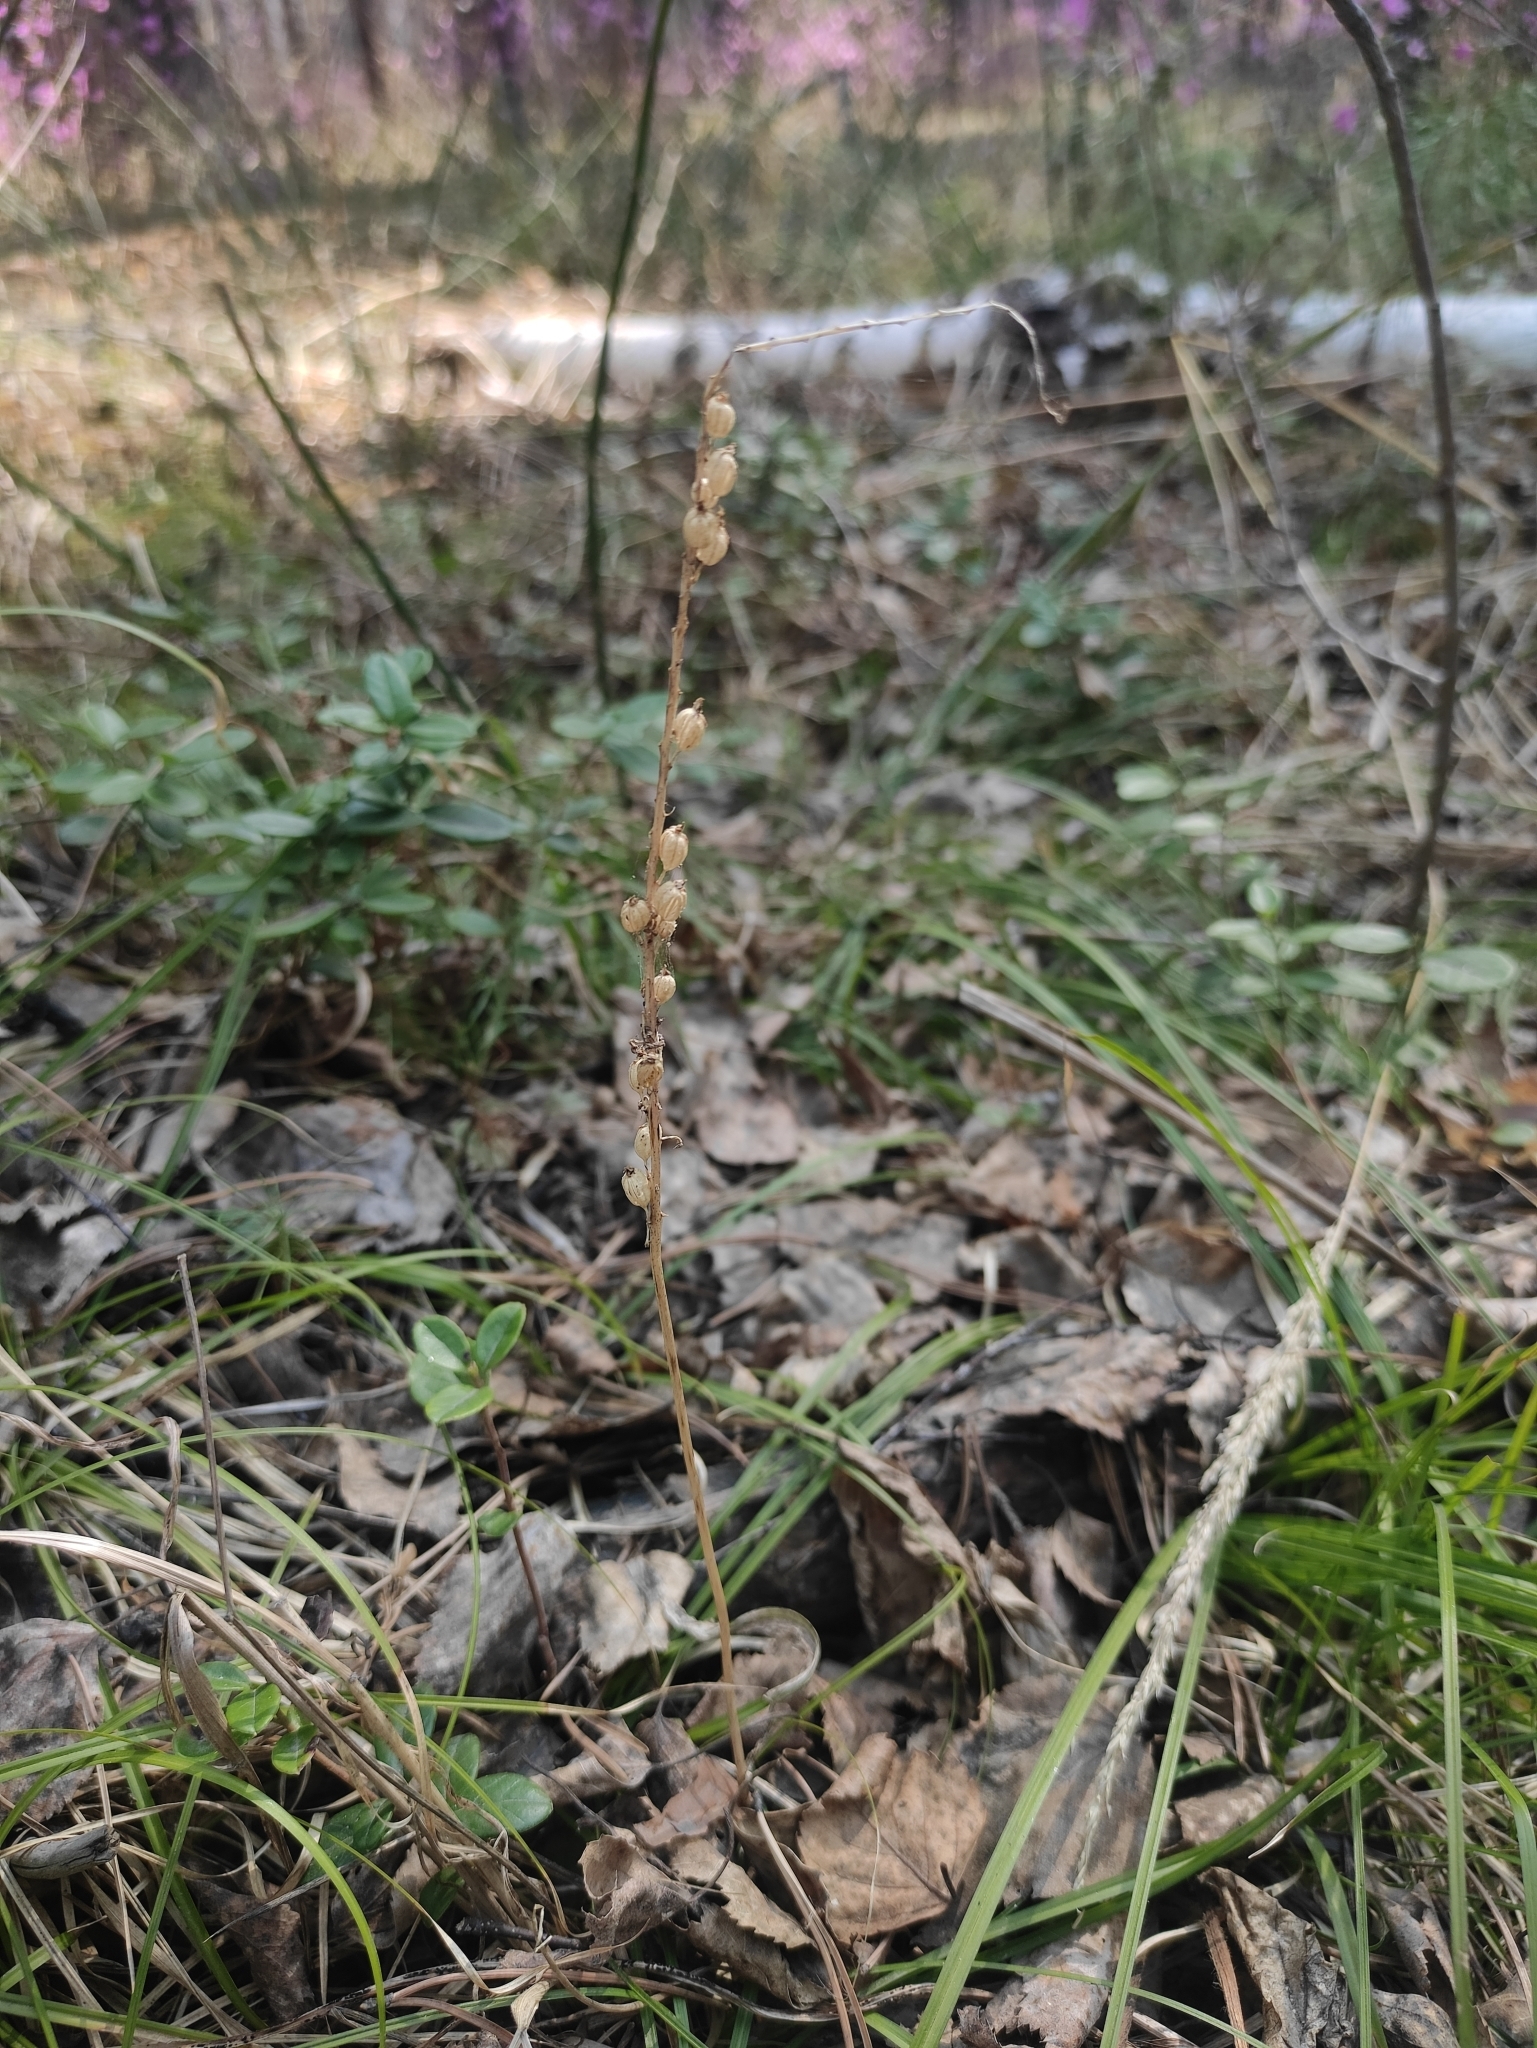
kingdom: Plantae
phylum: Tracheophyta
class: Liliopsida
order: Asparagales
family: Orchidaceae
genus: Malaxis
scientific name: Malaxis monophyllos
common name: White adder's-mouth
